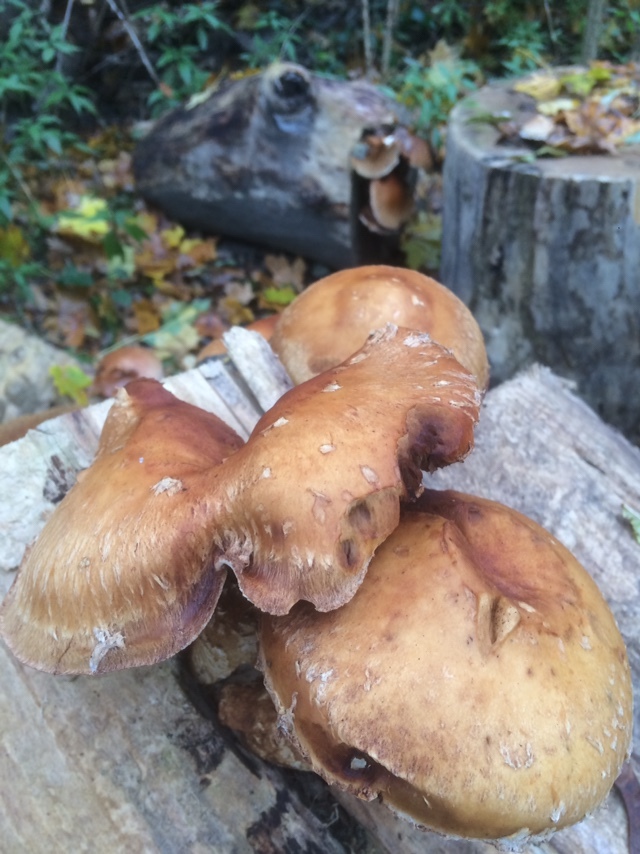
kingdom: Fungi
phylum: Basidiomycota
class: Agaricomycetes
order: Agaricales
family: Strophariaceae
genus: Pholiota
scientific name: Pholiota populnea
